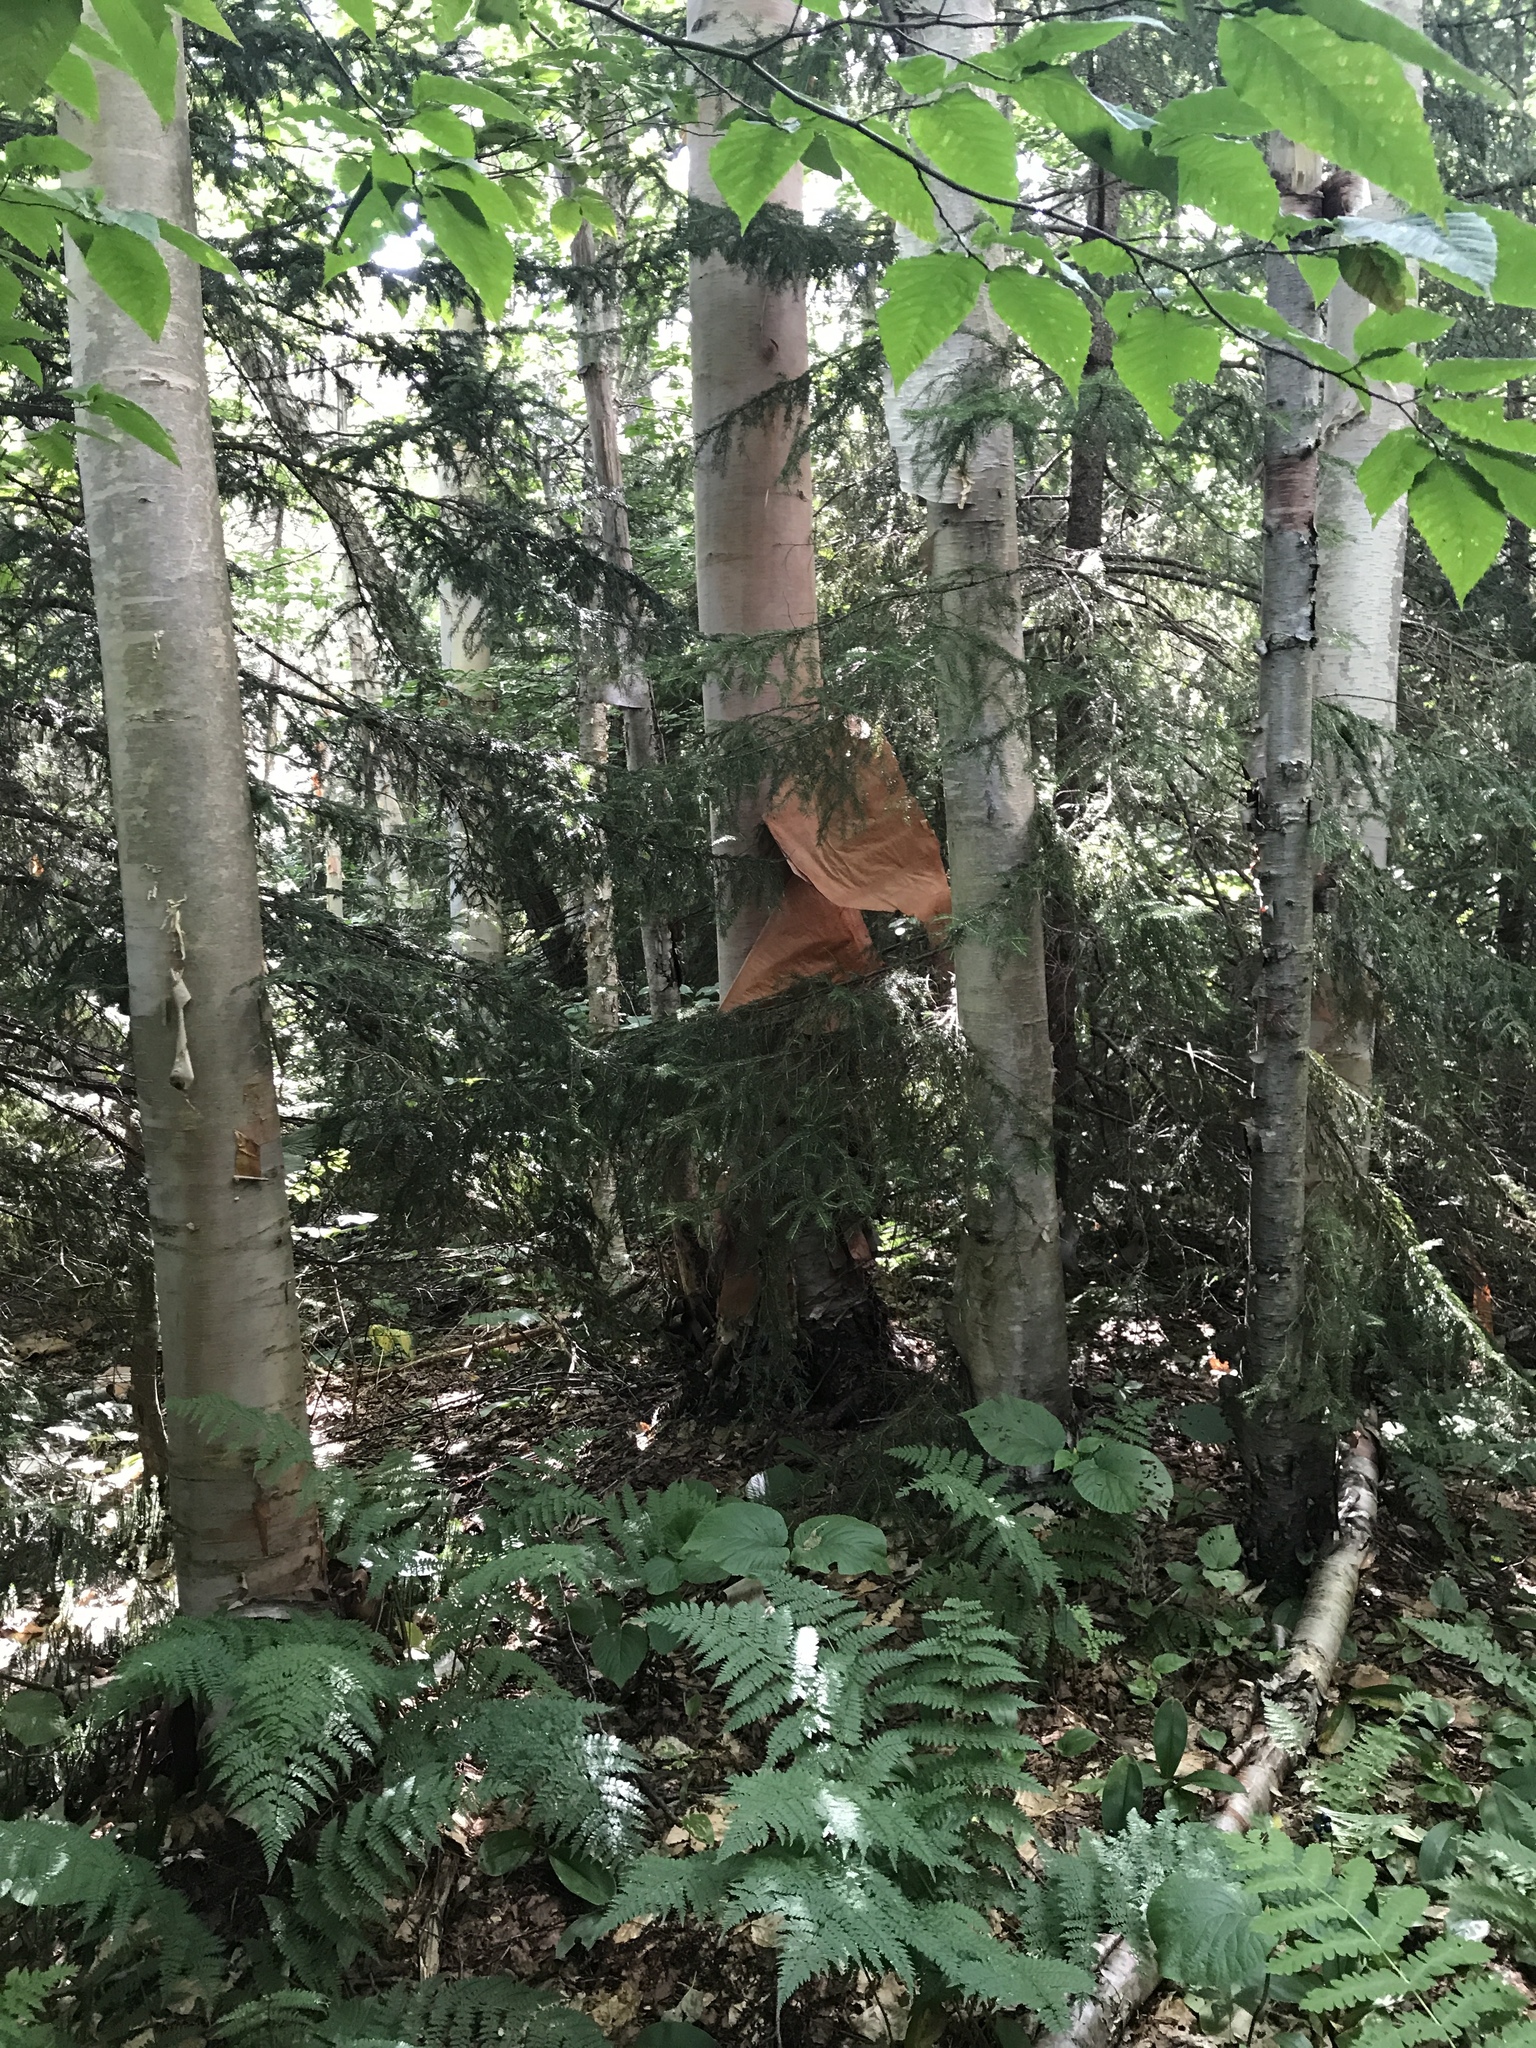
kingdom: Plantae
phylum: Tracheophyta
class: Magnoliopsida
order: Fagales
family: Betulaceae
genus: Betula
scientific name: Betula cordifolia
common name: Mountain white birch
